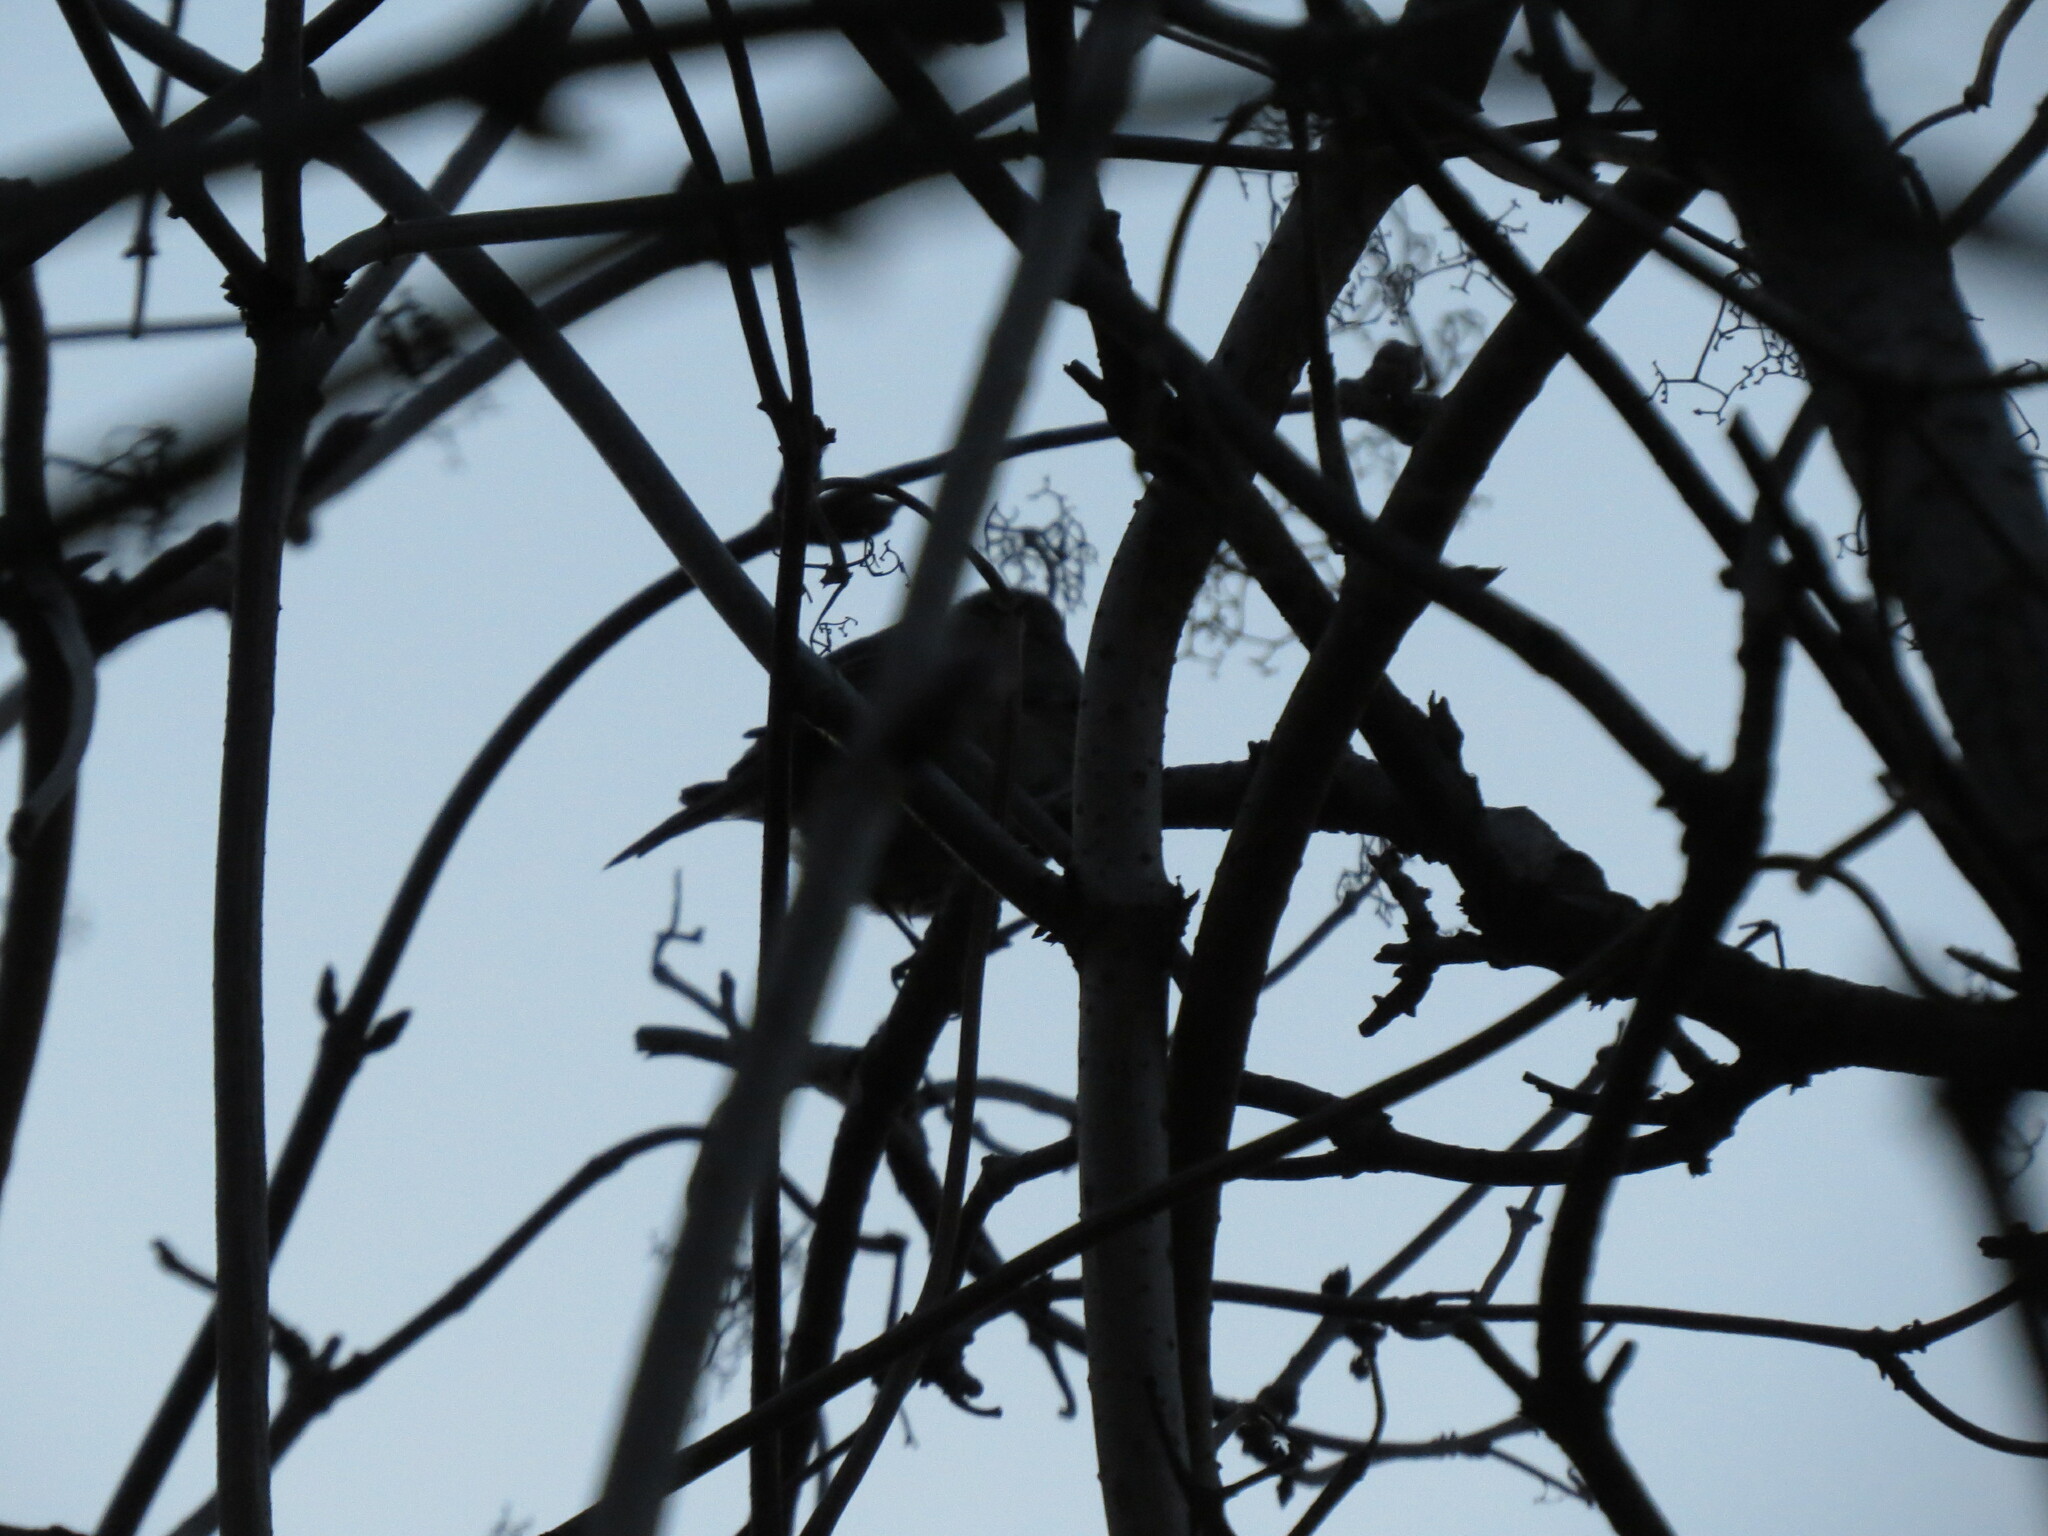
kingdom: Animalia
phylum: Chordata
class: Aves
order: Passeriformes
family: Muscicapidae
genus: Erithacus
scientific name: Erithacus rubecula
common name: European robin
